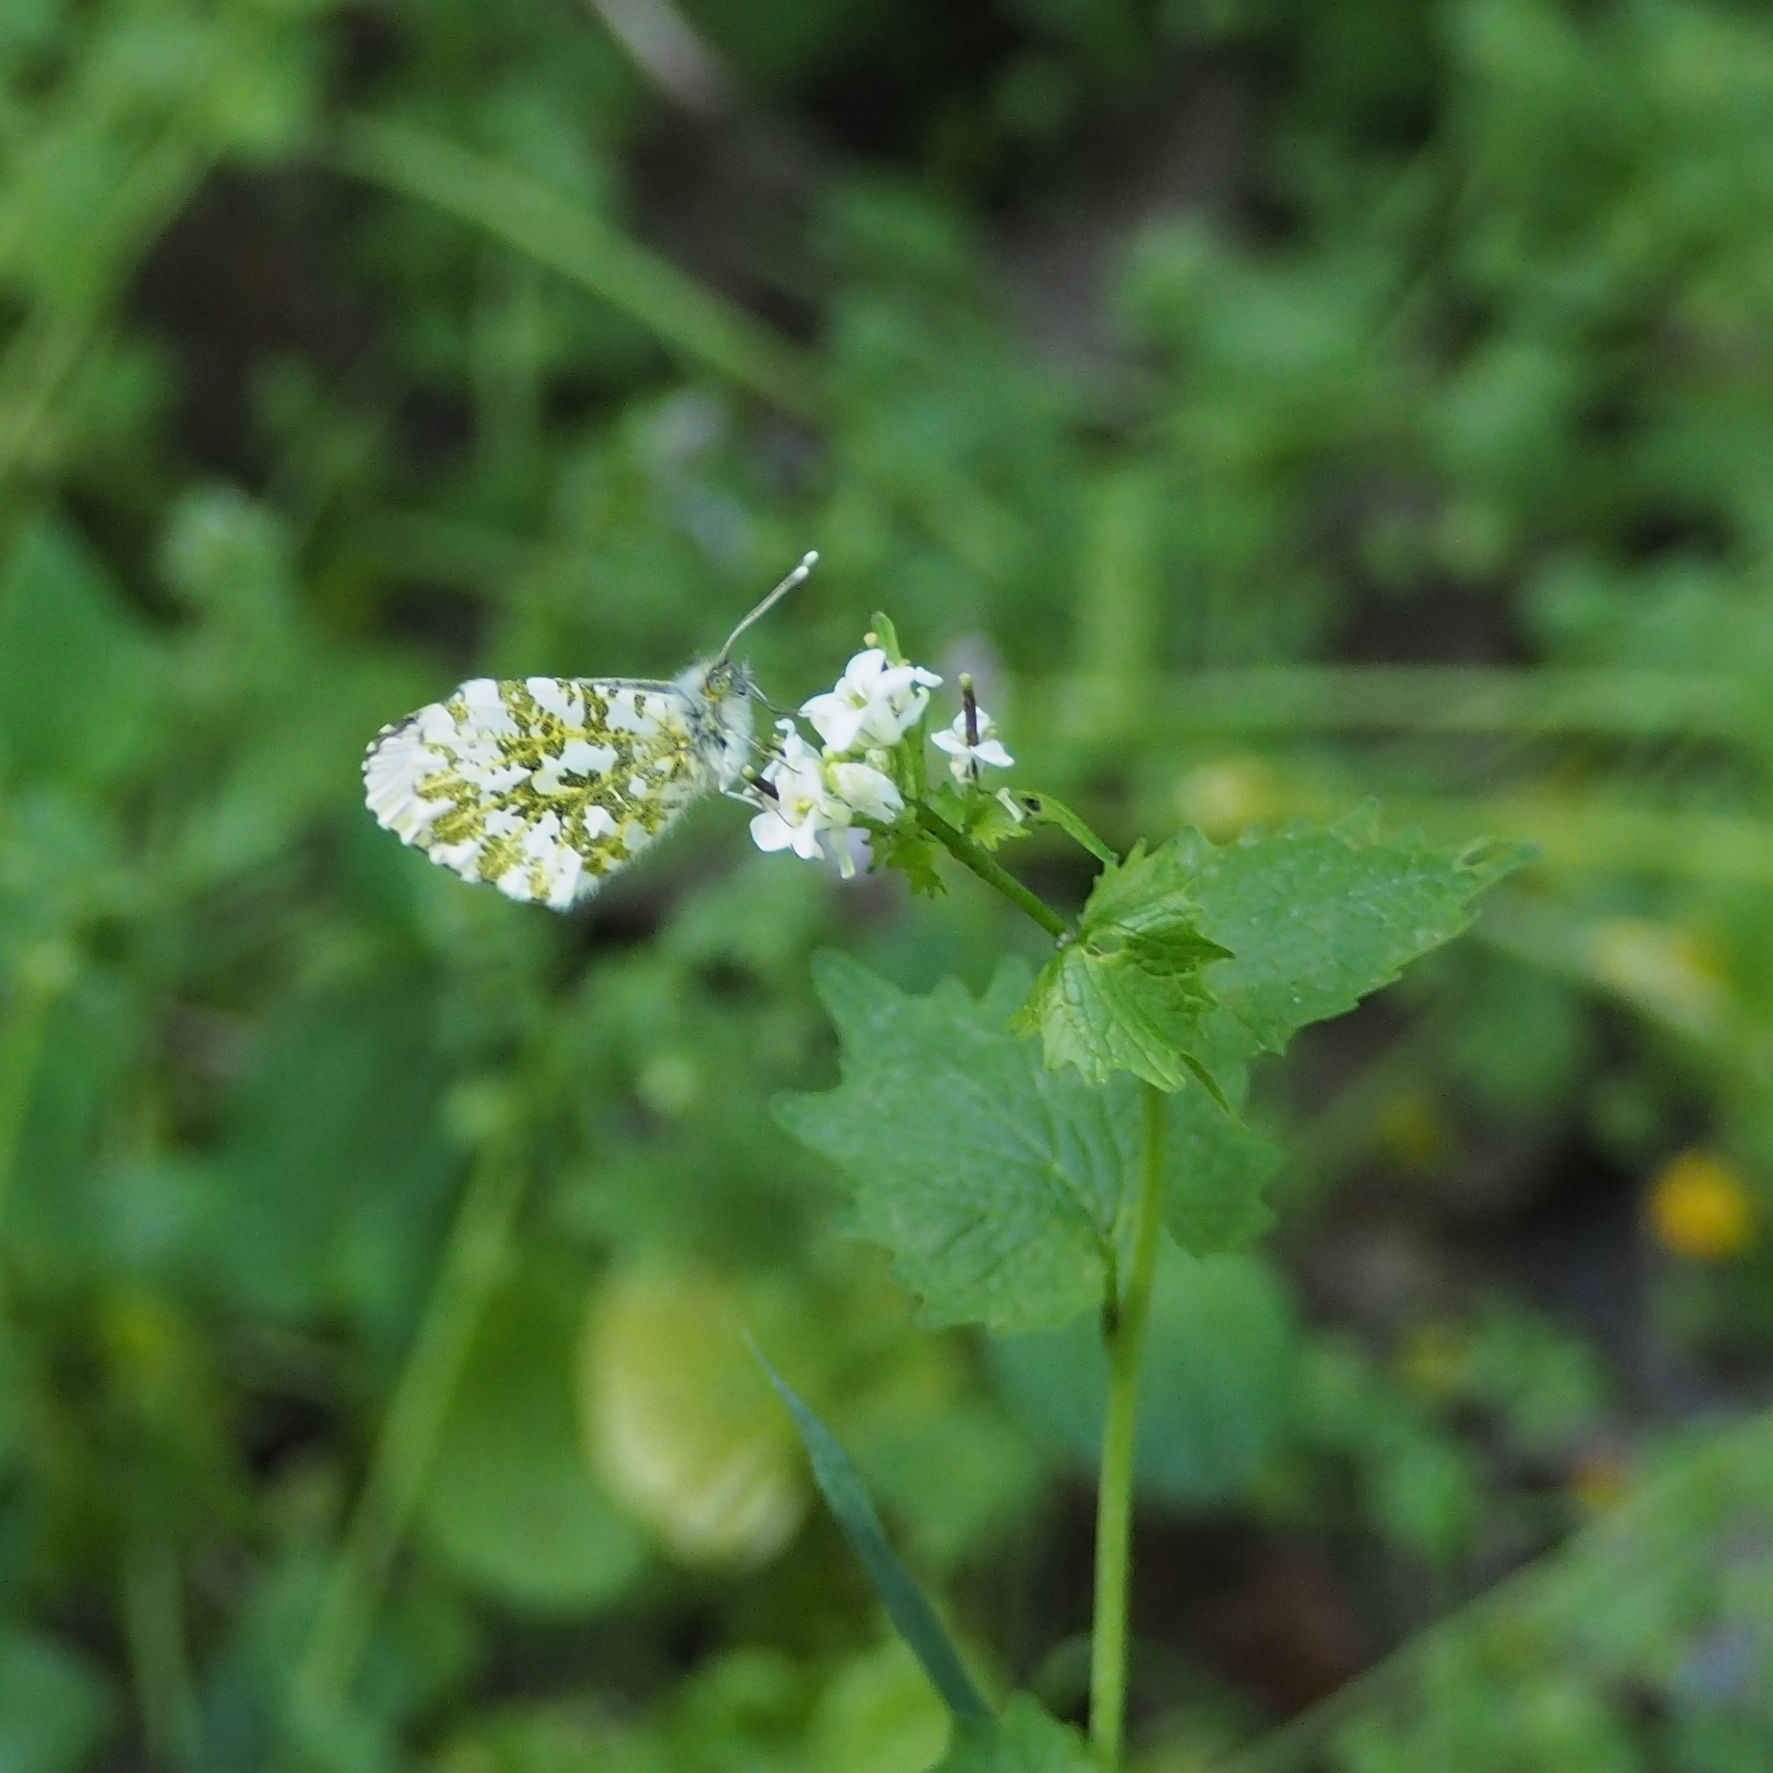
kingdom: Animalia
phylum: Arthropoda
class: Insecta
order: Lepidoptera
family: Pieridae
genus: Anthocharis
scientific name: Anthocharis cardamines
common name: Orange-tip
